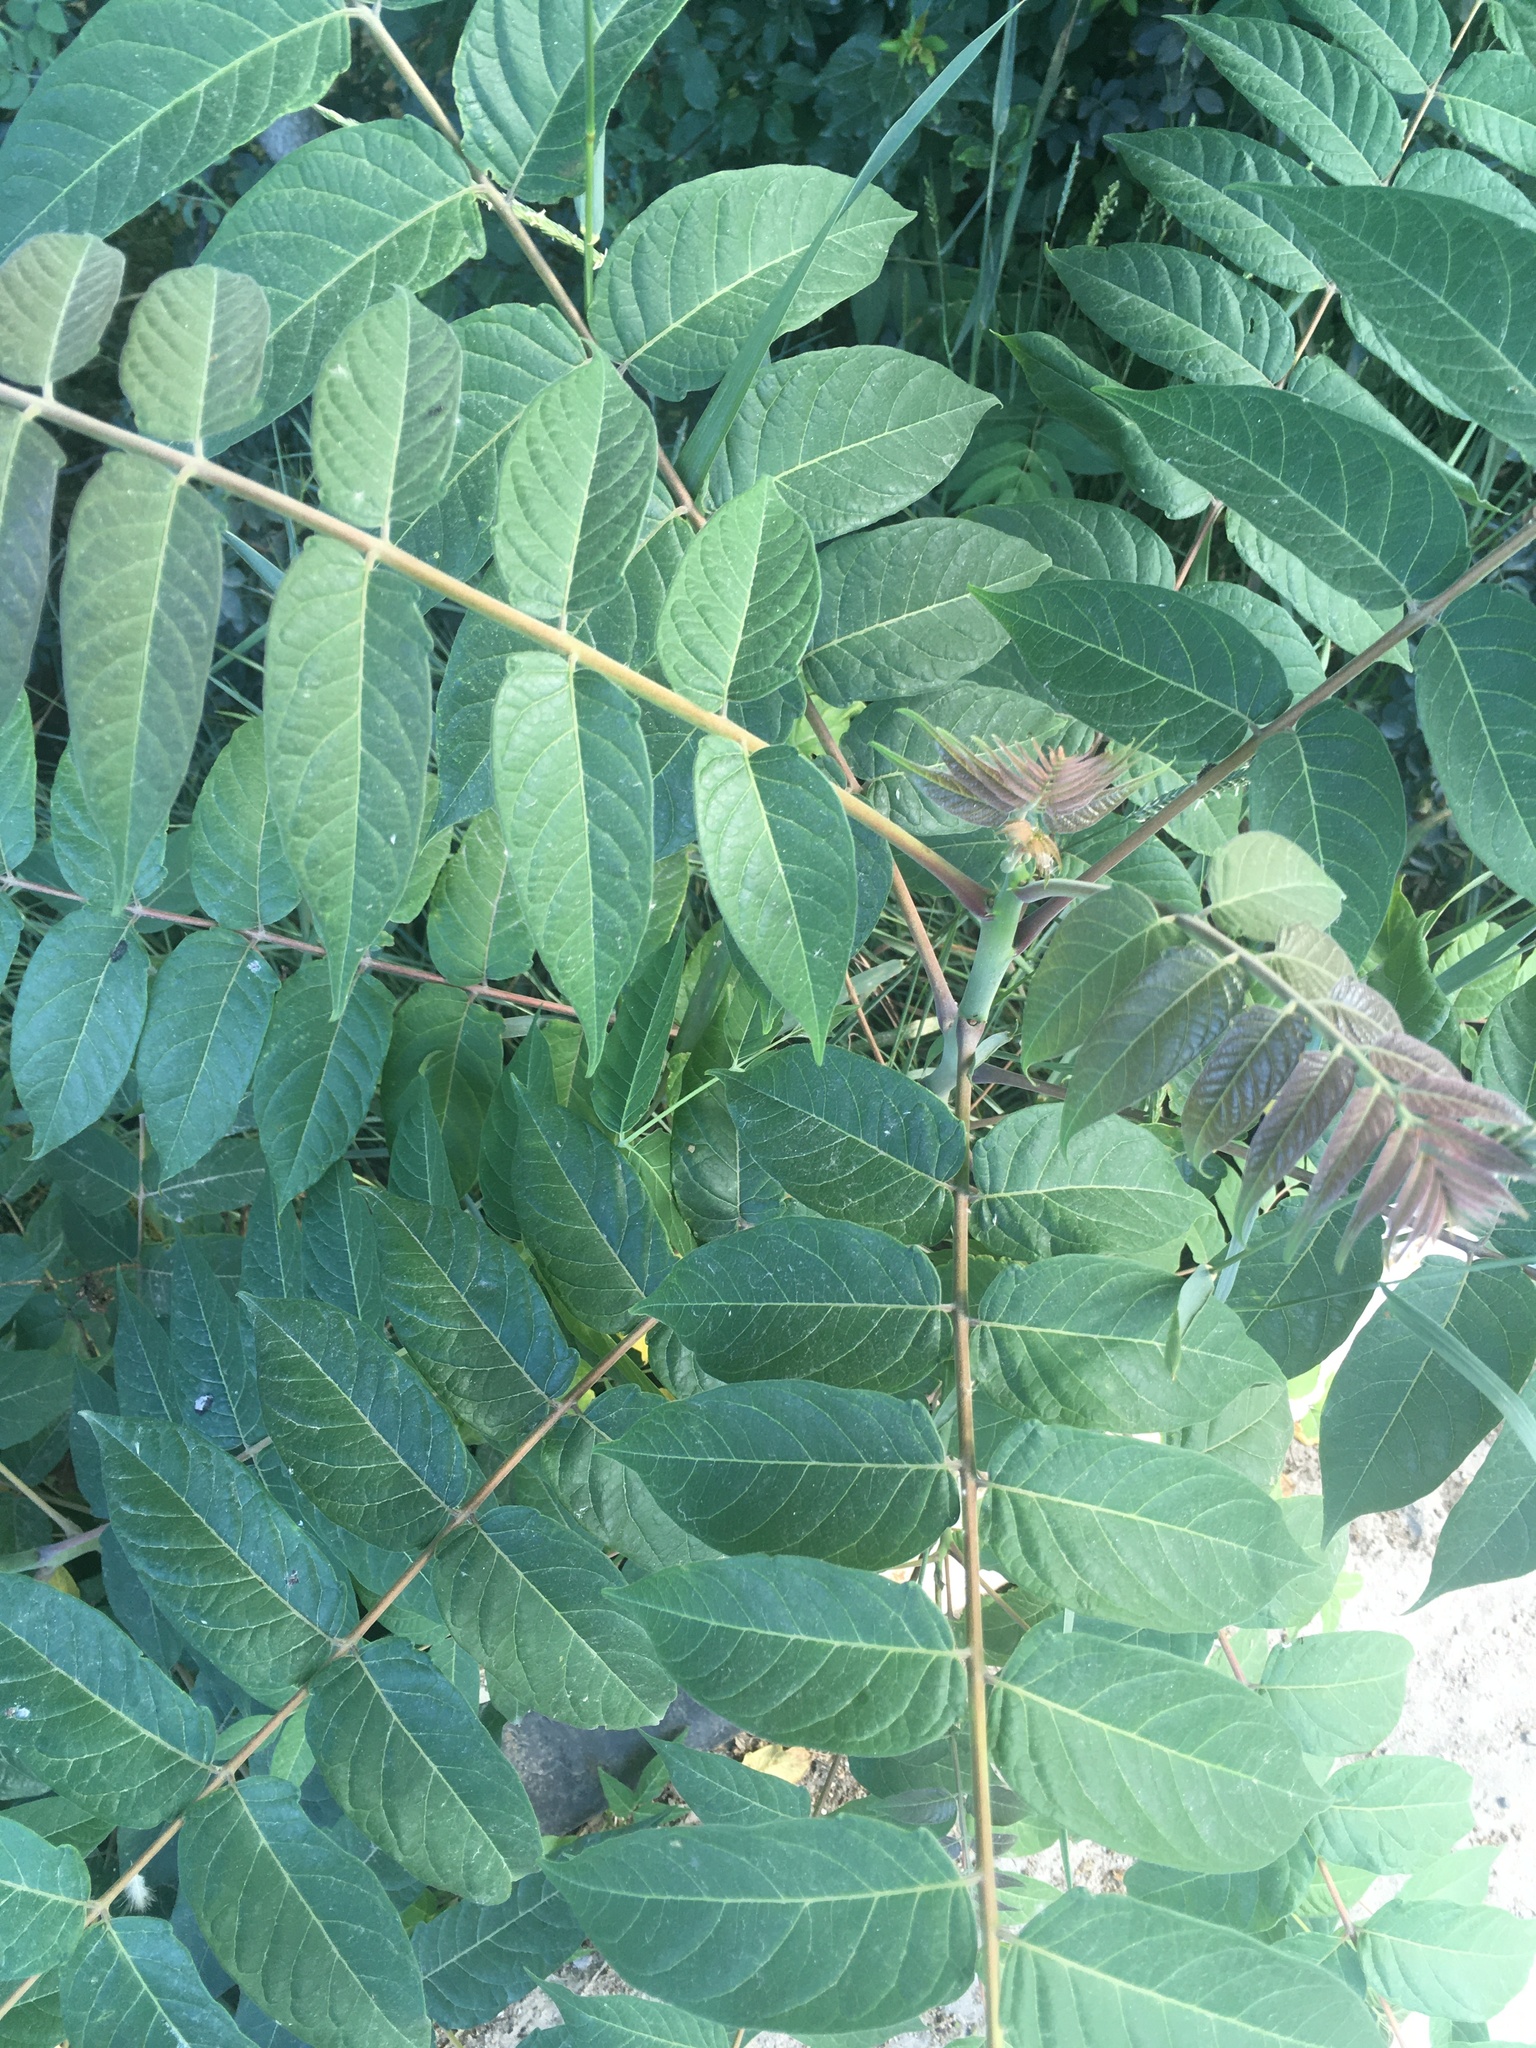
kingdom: Plantae
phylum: Tracheophyta
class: Magnoliopsida
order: Sapindales
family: Simaroubaceae
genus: Ailanthus
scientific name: Ailanthus altissima
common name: Tree-of-heaven
